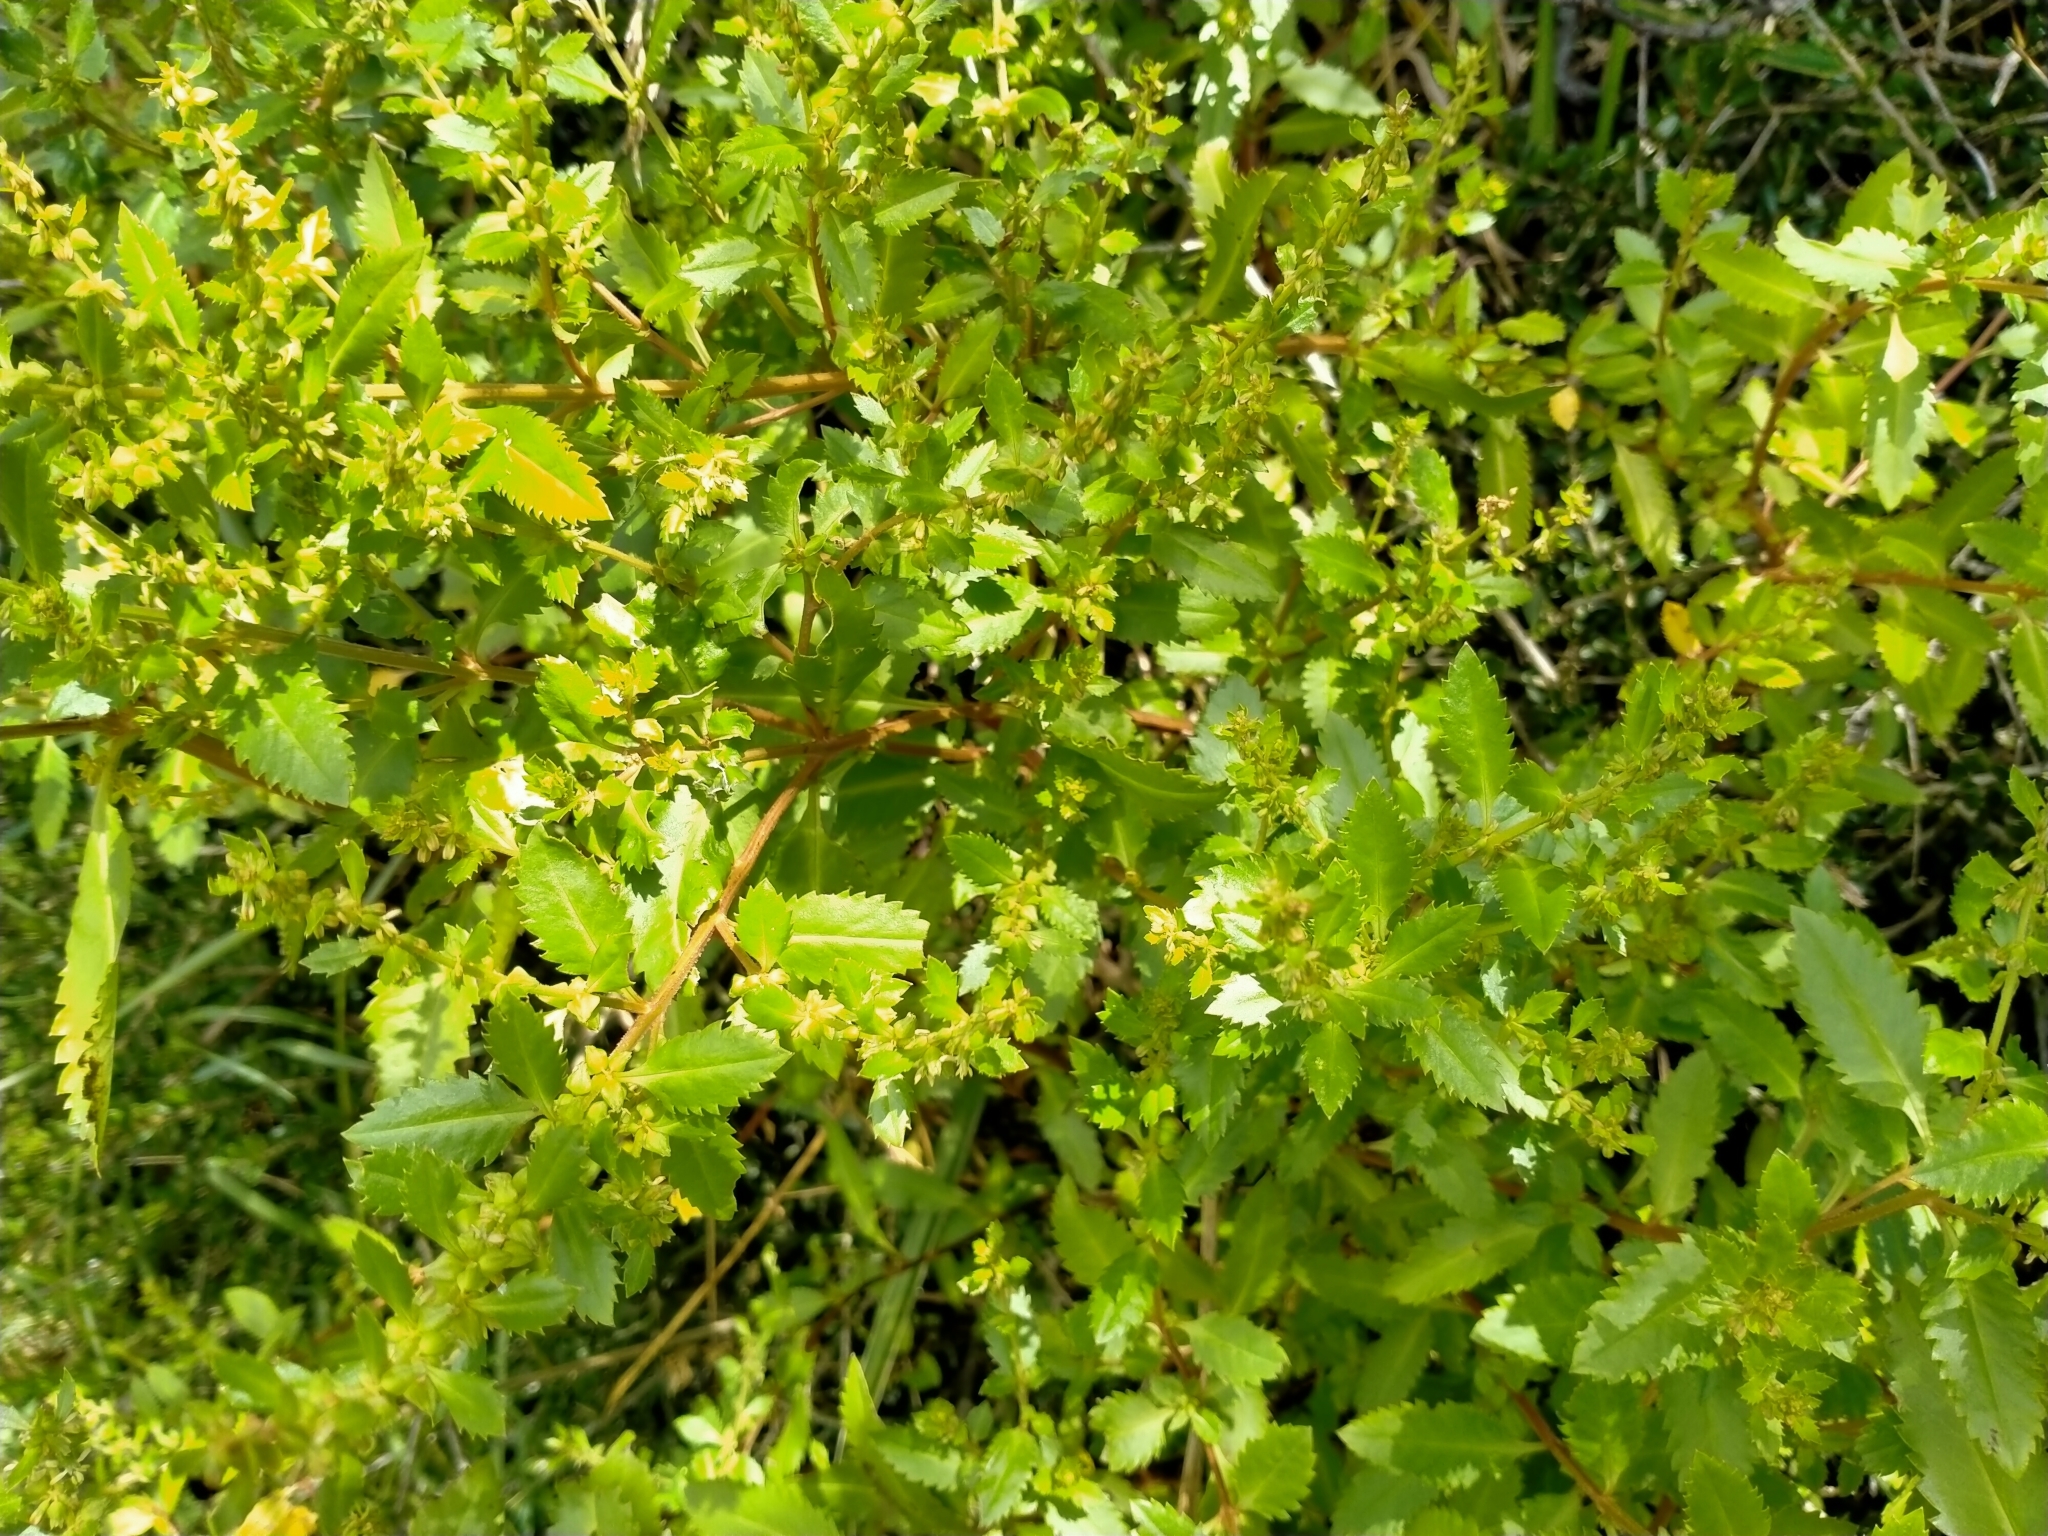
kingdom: Plantae
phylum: Tracheophyta
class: Magnoliopsida
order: Saxifragales
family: Haloragaceae
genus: Haloragis
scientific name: Haloragis erecta
